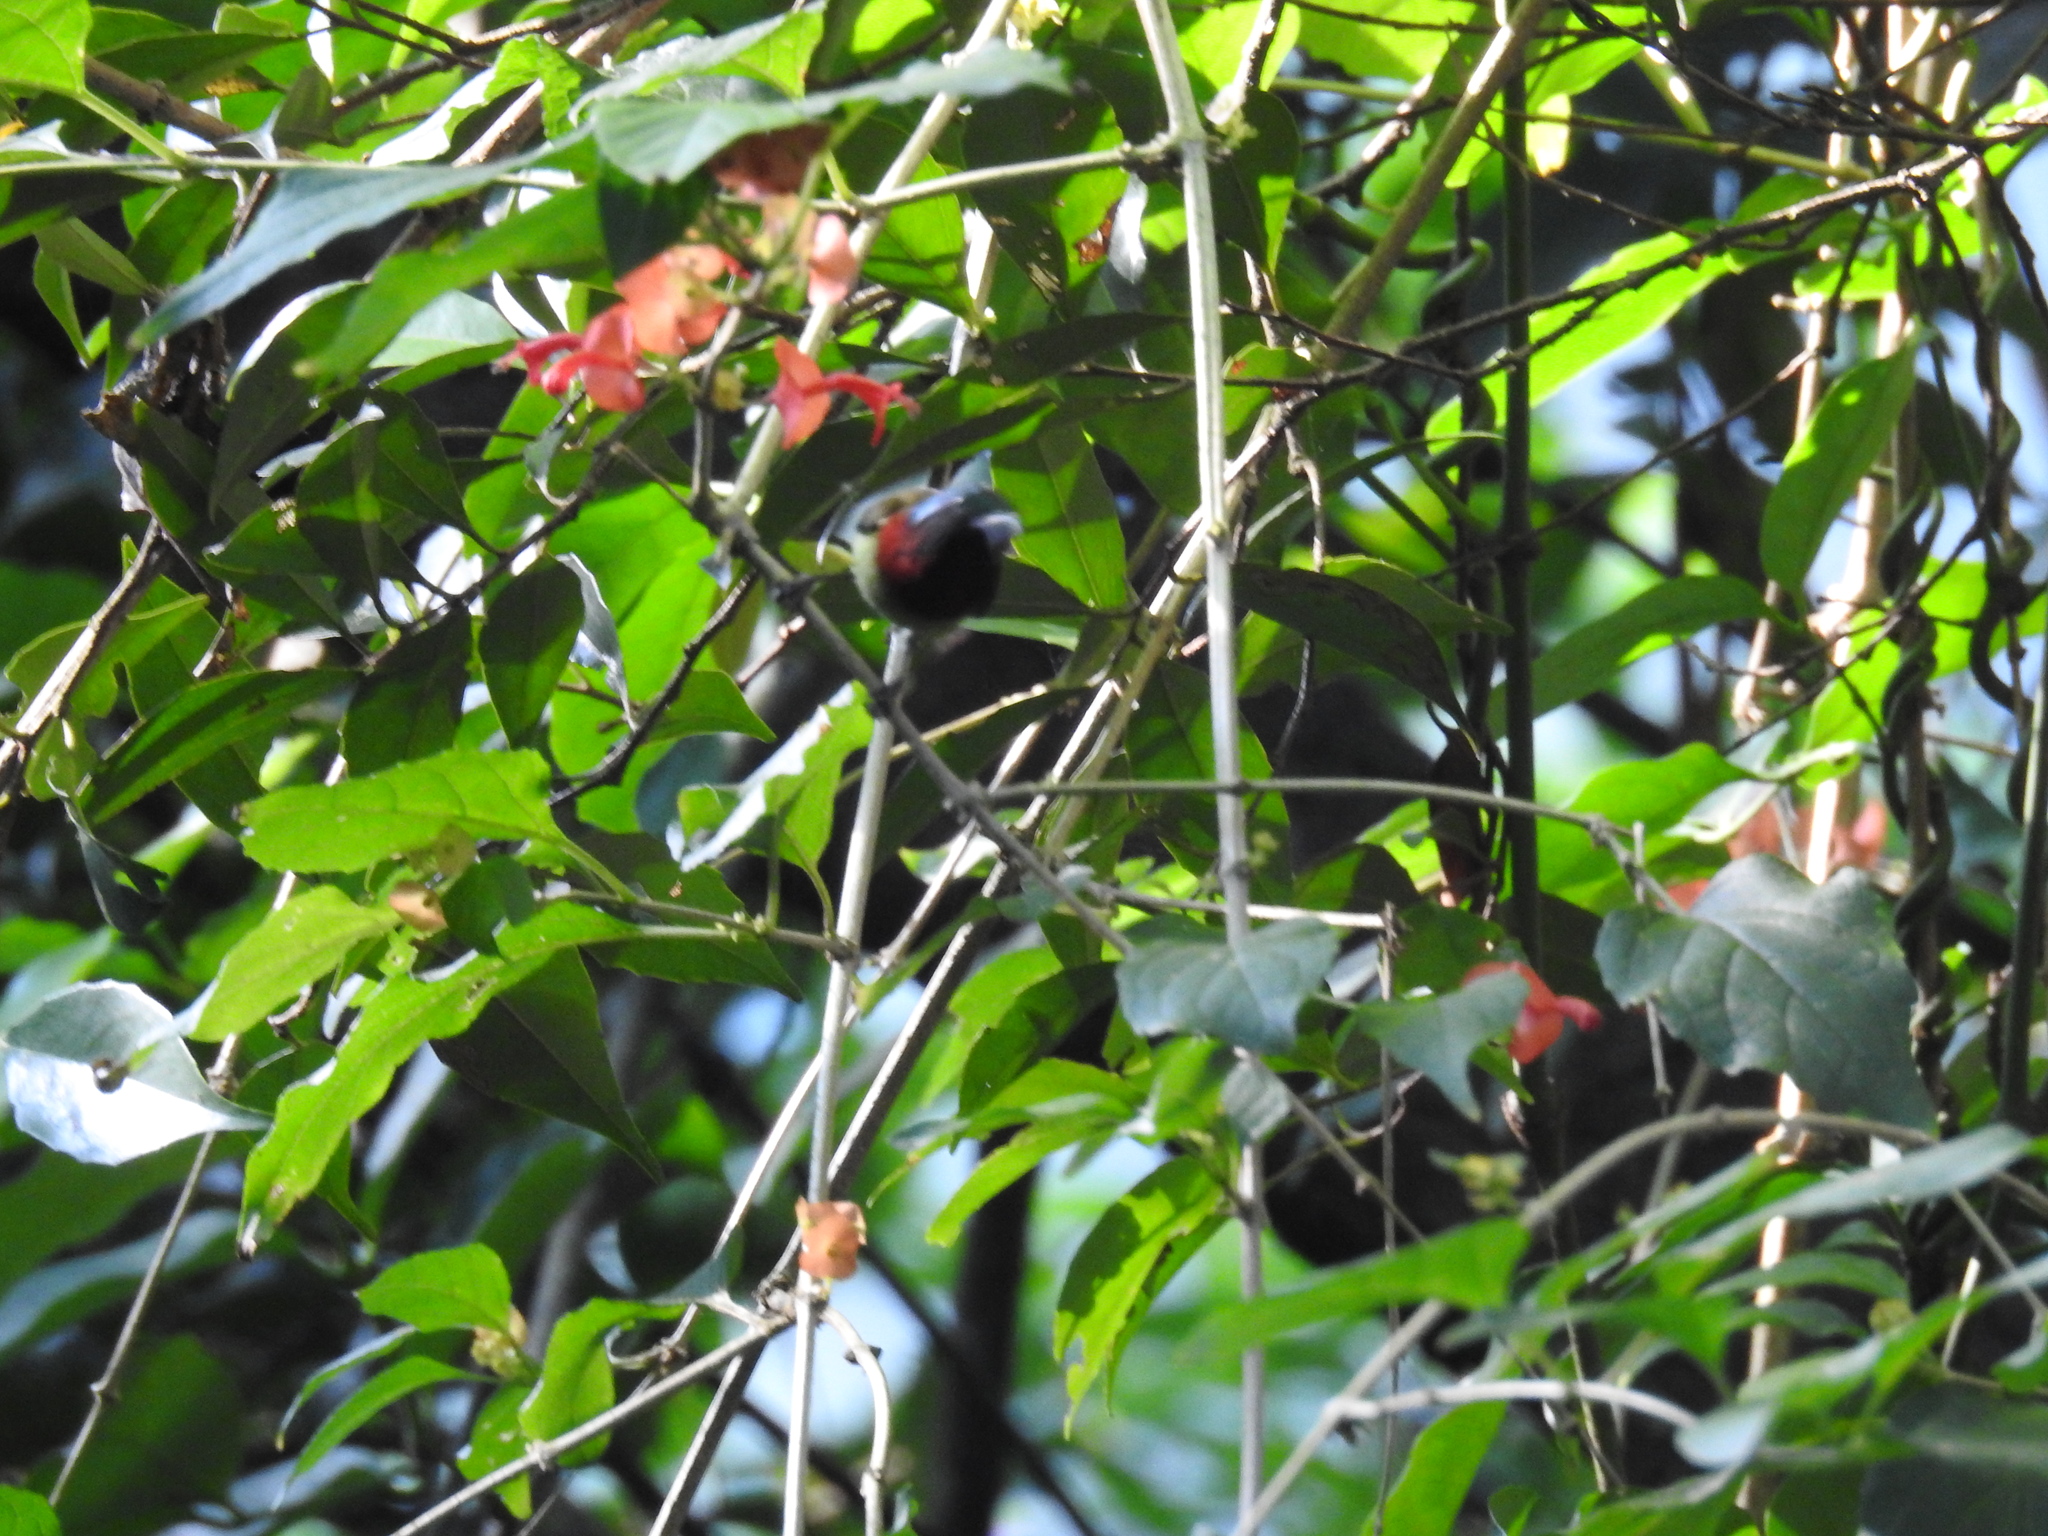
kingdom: Animalia
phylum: Chordata
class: Aves
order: Passeriformes
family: Nectariniidae
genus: Aethopyga
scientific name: Aethopyga christinae
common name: Fork-tailed sunbird
